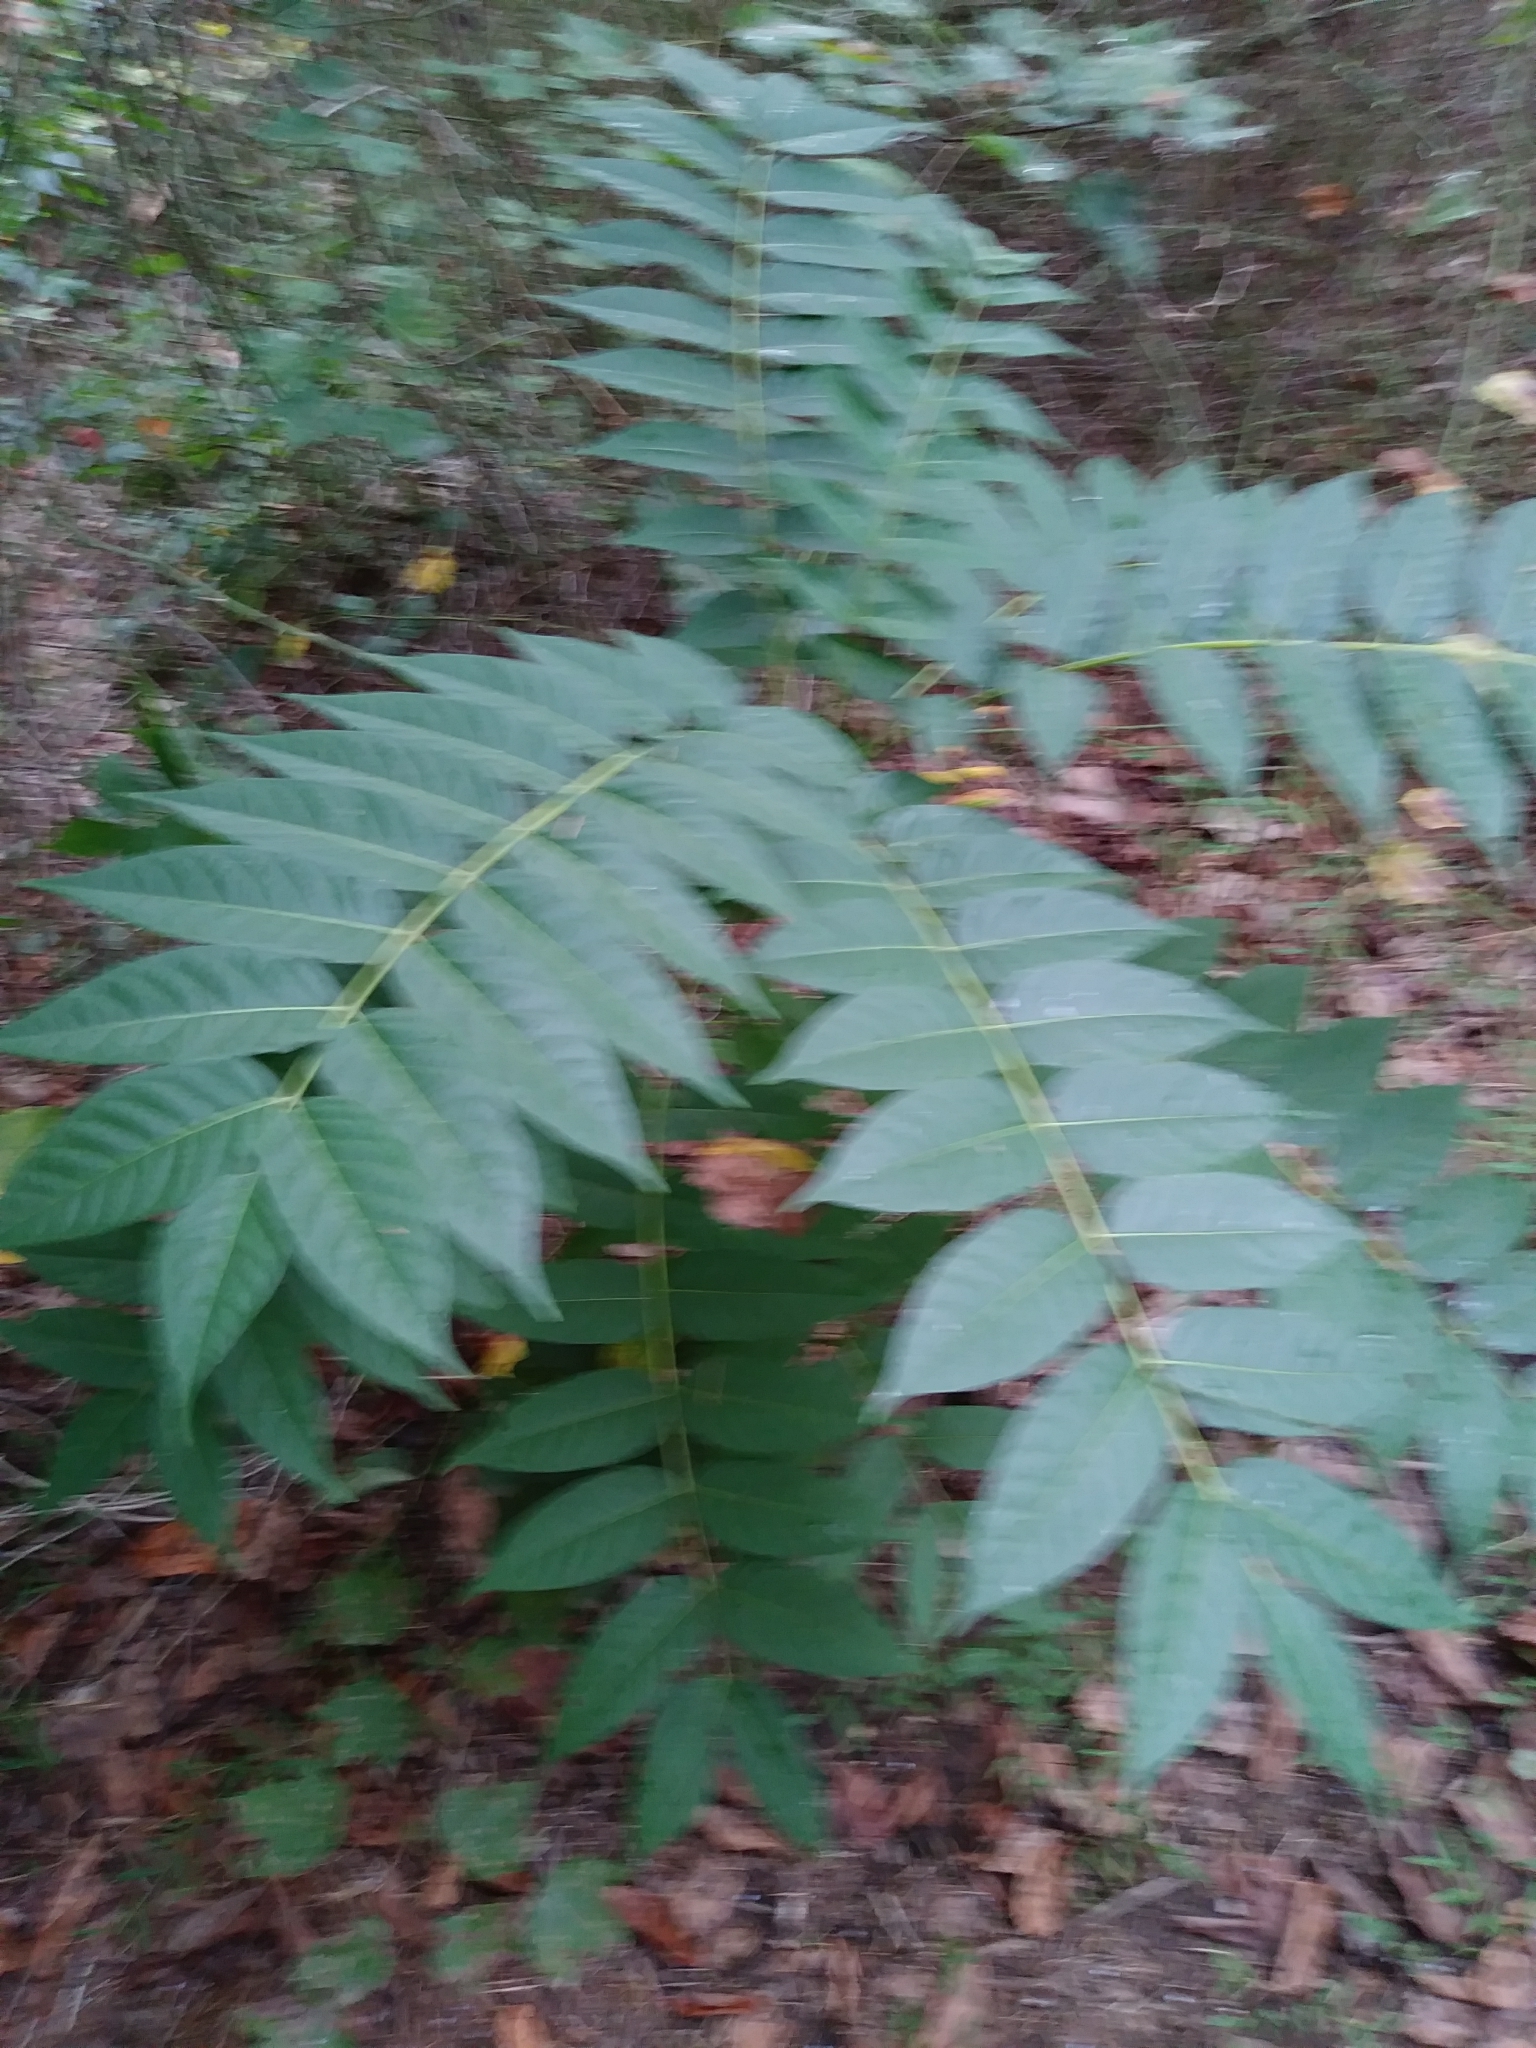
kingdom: Plantae
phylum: Tracheophyta
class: Magnoliopsida
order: Sapindales
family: Simaroubaceae
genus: Ailanthus
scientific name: Ailanthus altissima
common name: Tree-of-heaven
